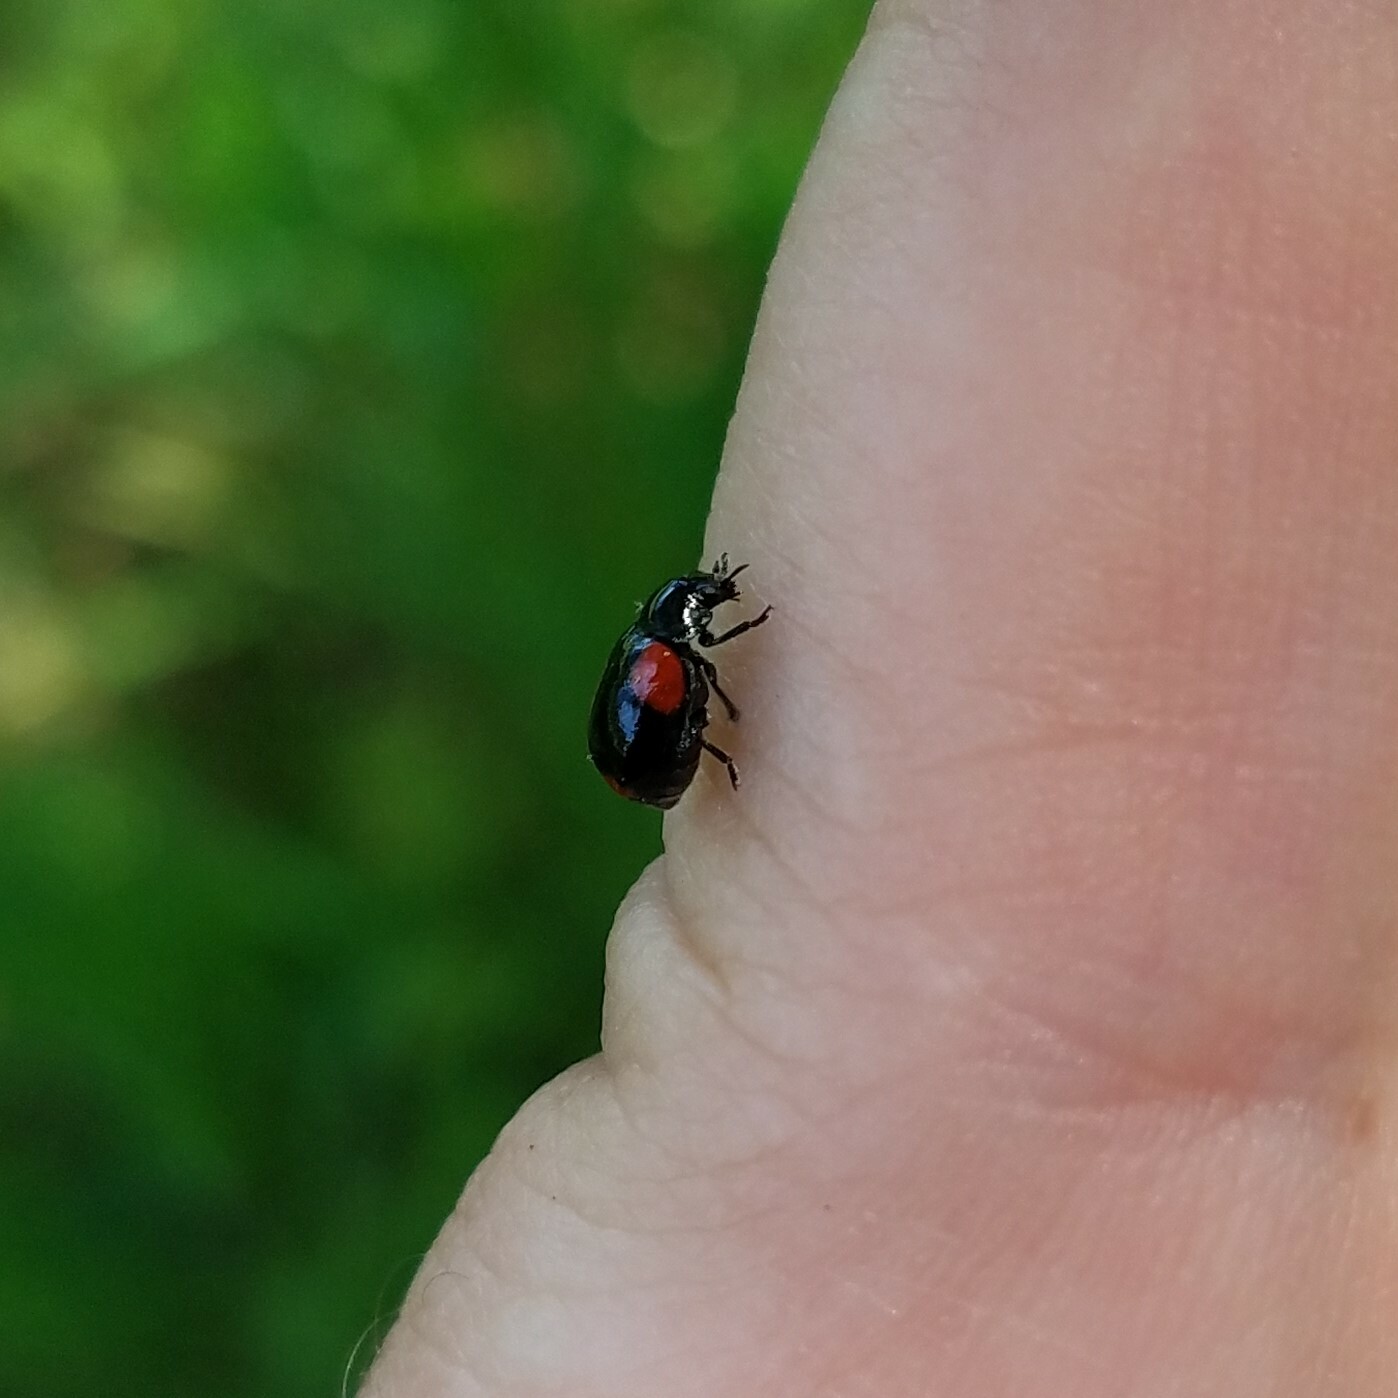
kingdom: Animalia
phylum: Arthropoda
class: Insecta
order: Coleoptera
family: Chrysomelidae
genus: Babia
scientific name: Babia quadriguttata
